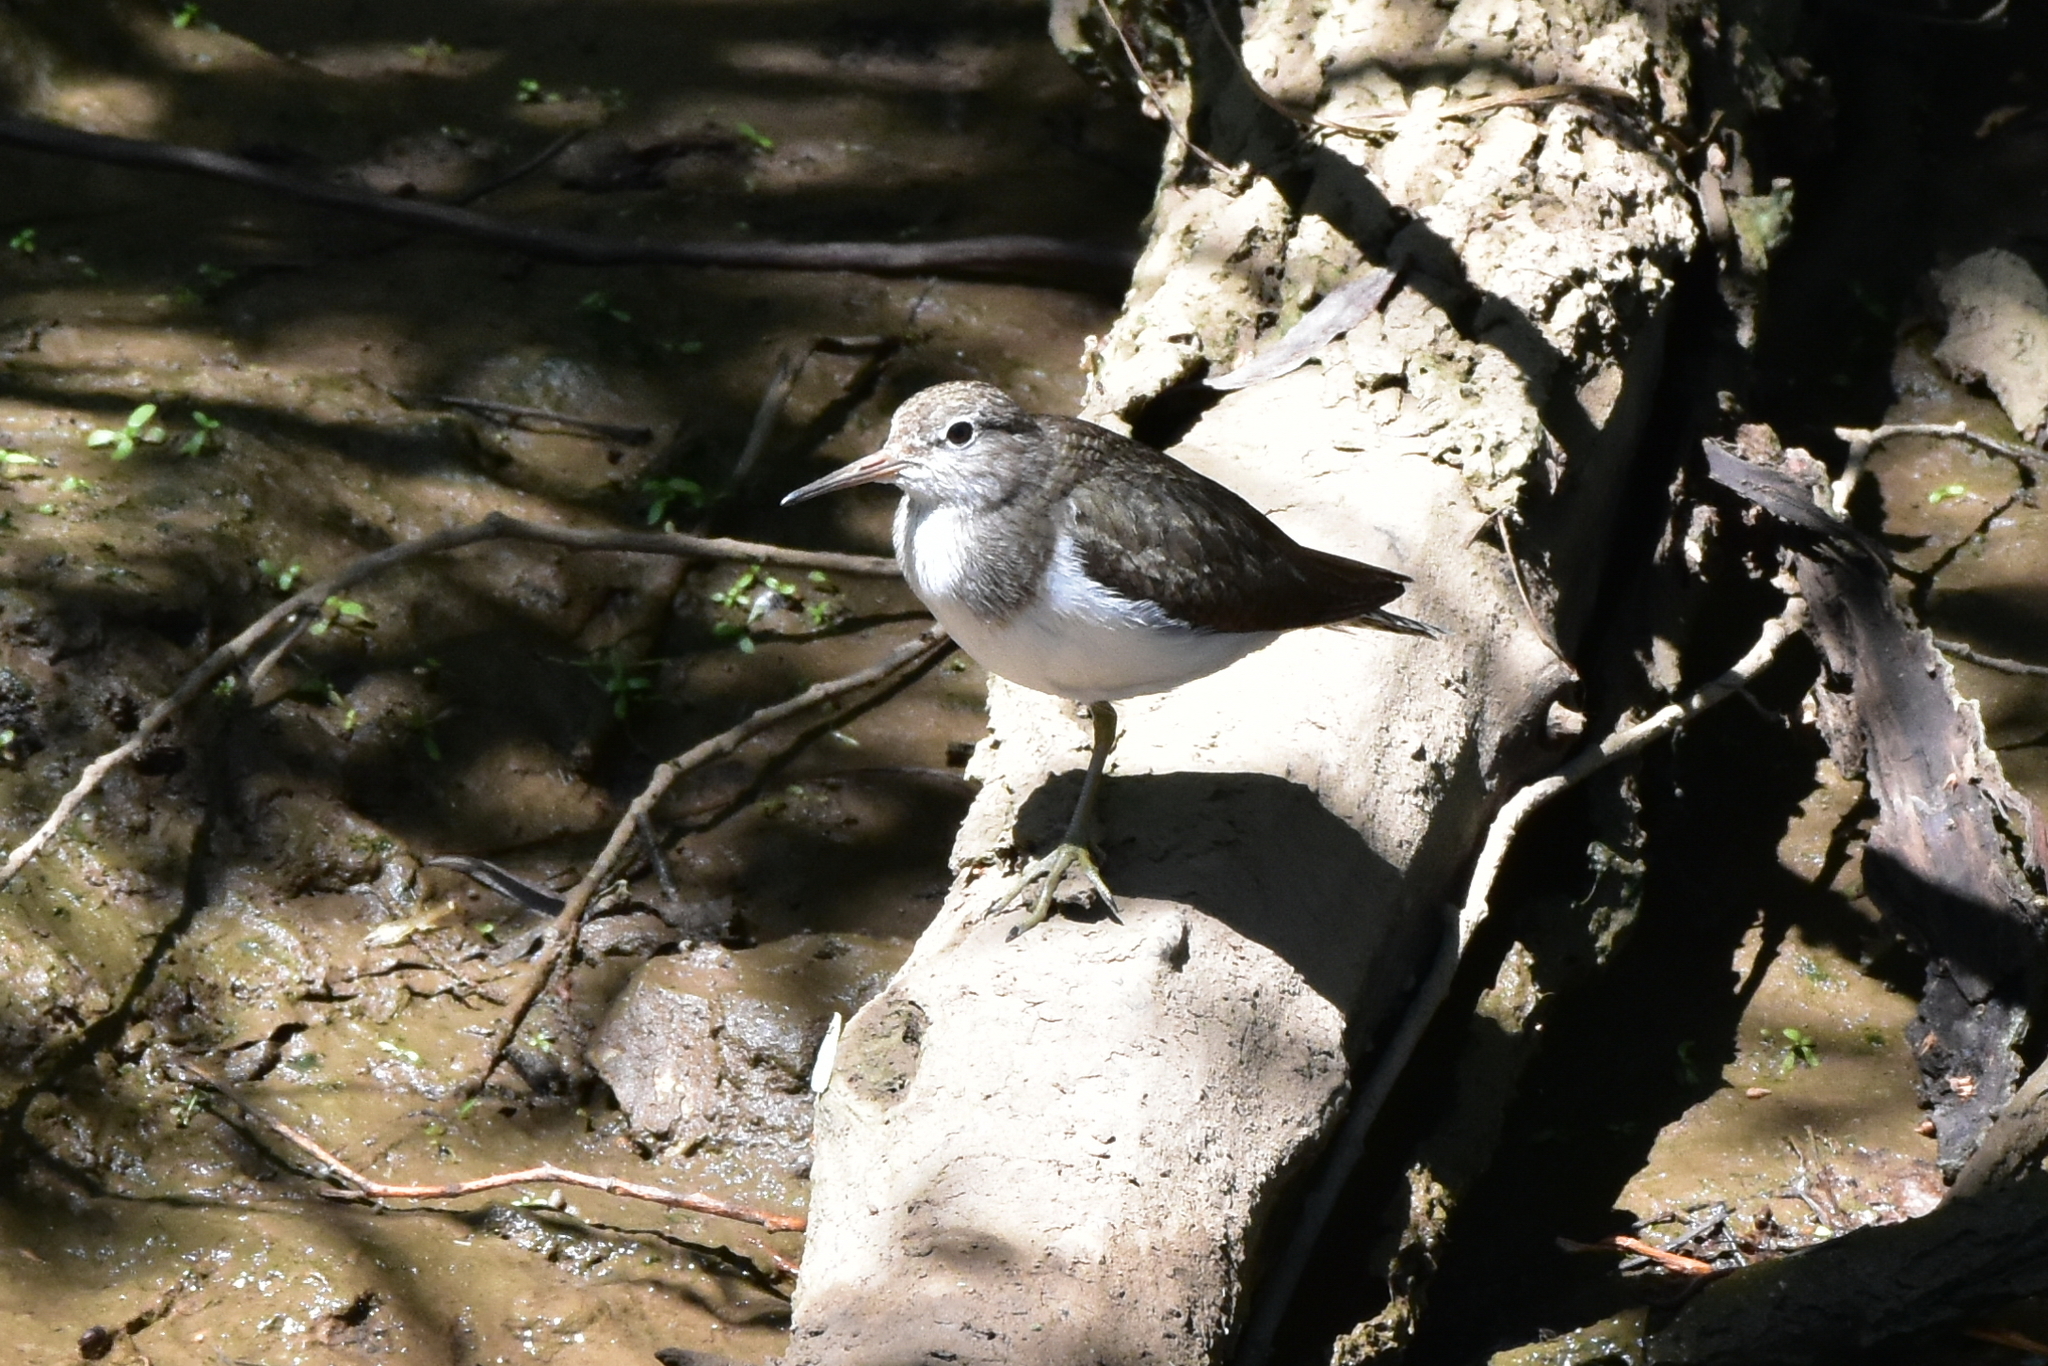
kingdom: Animalia
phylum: Chordata
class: Aves
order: Charadriiformes
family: Scolopacidae
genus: Actitis
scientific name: Actitis hypoleucos
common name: Common sandpiper
